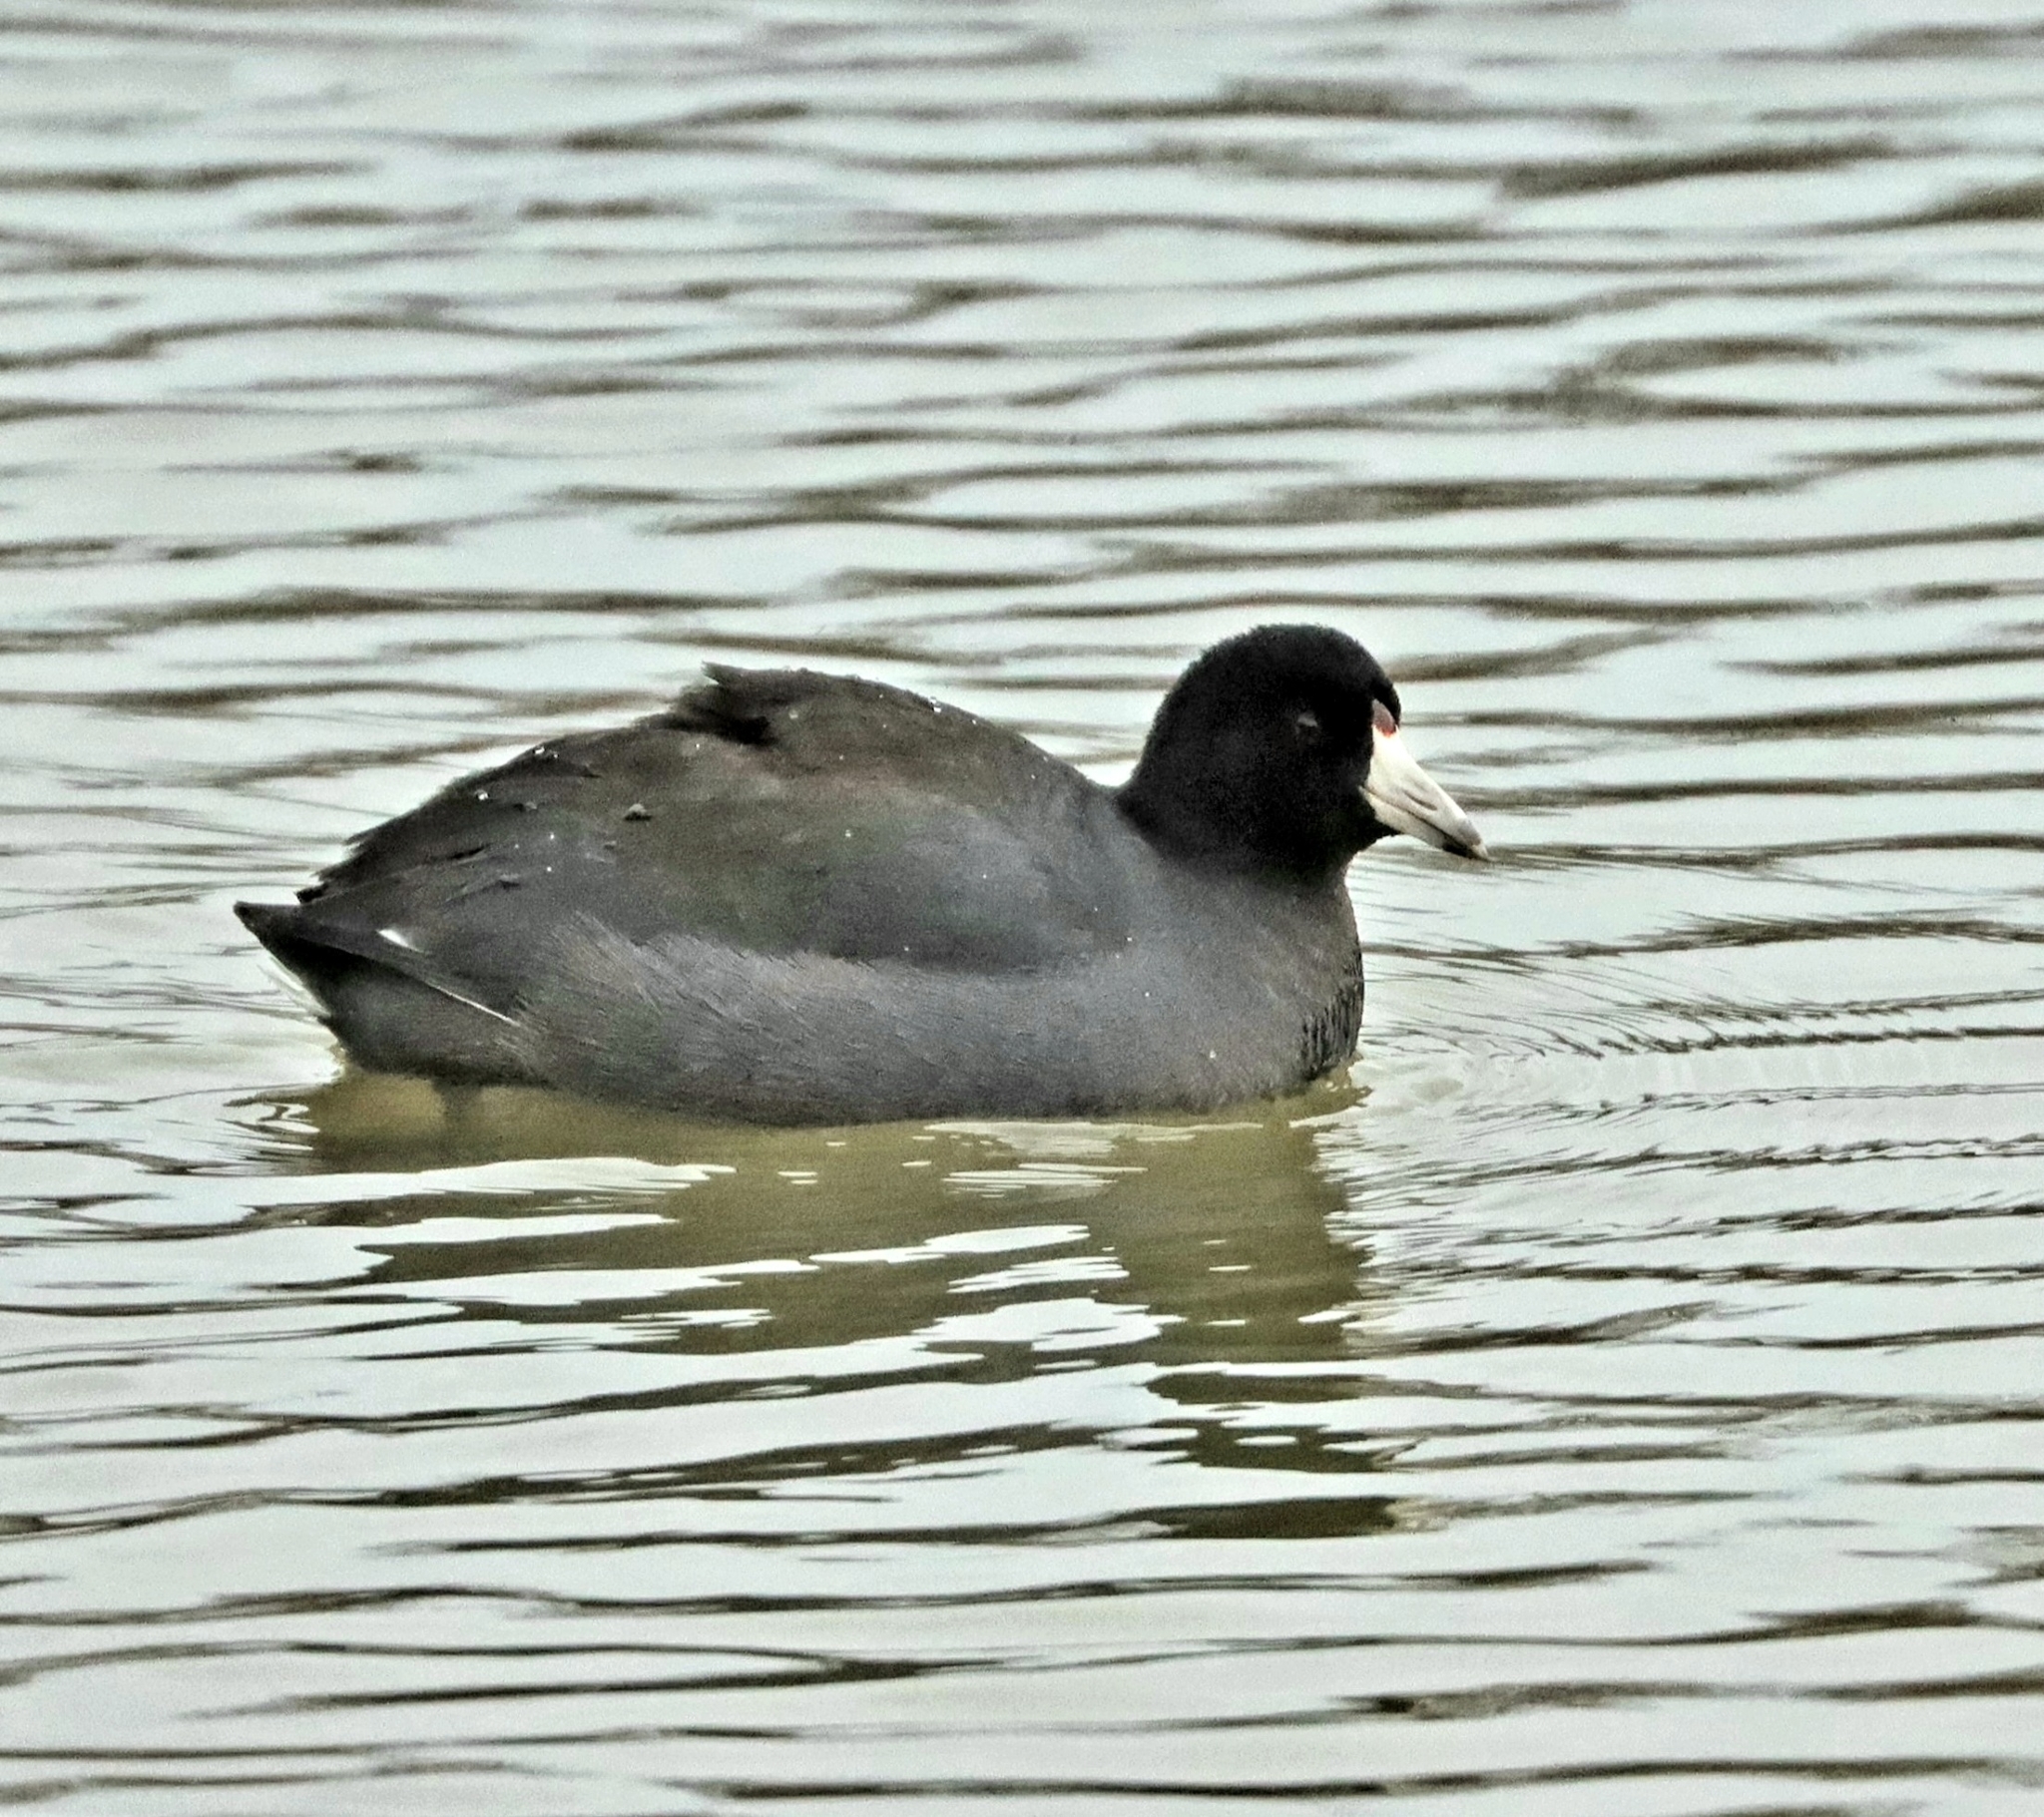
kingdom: Animalia
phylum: Chordata
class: Aves
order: Gruiformes
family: Rallidae
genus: Fulica
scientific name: Fulica americana
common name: American coot
